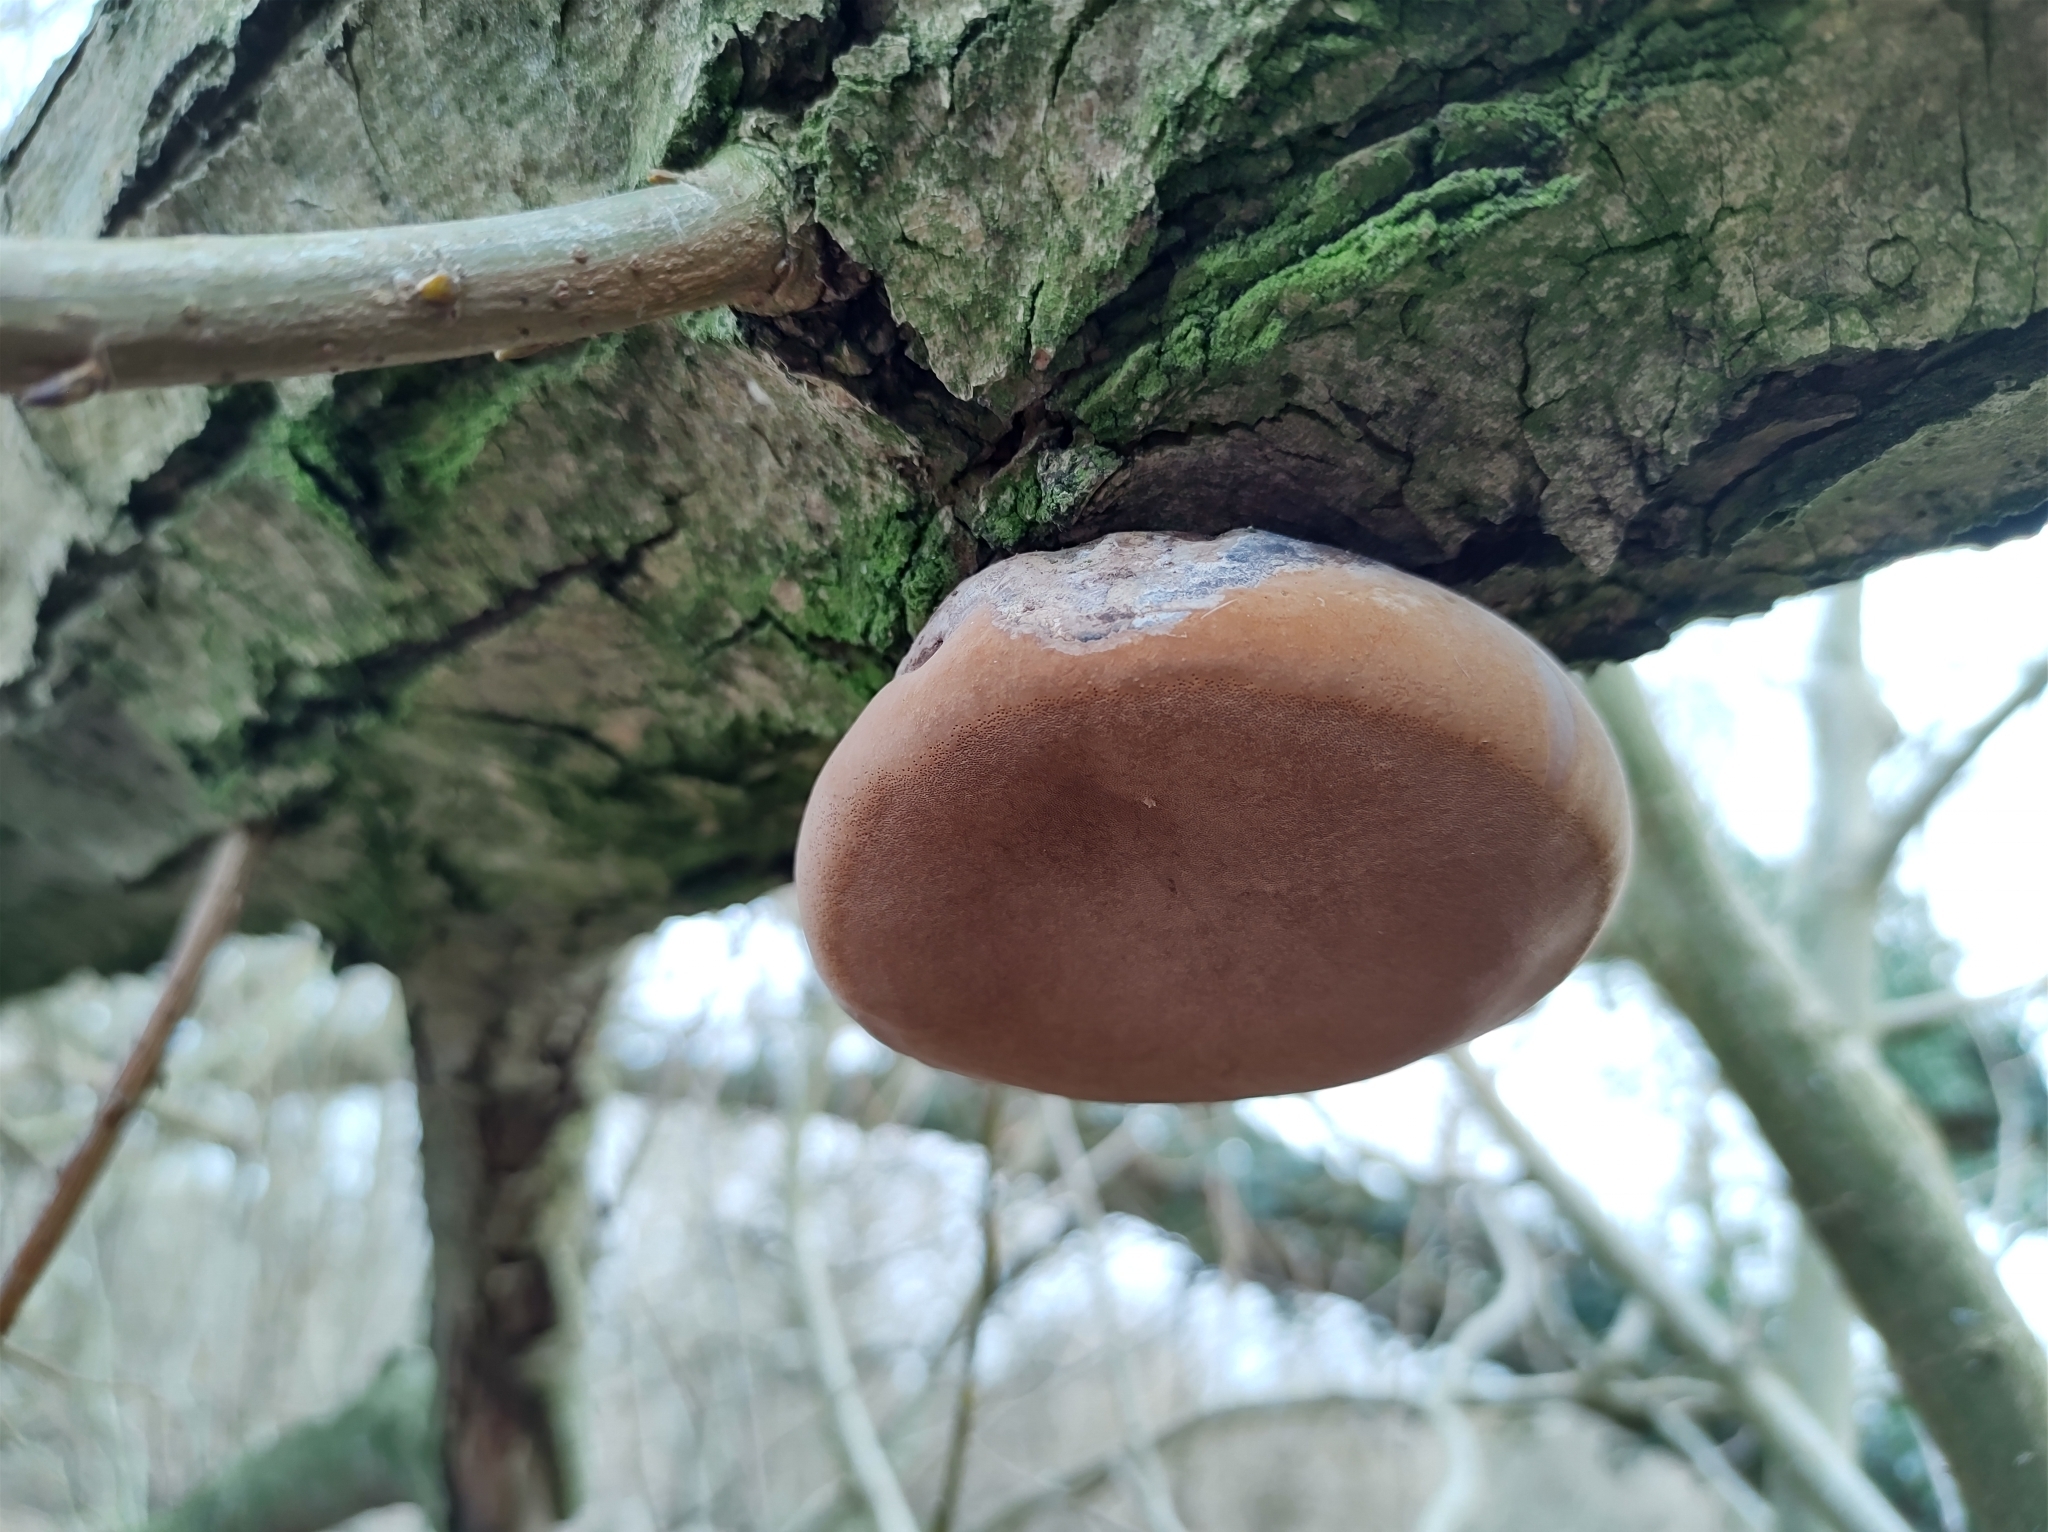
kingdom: Fungi
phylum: Basidiomycota
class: Agaricomycetes
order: Hymenochaetales
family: Hymenochaetaceae
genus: Phellinus
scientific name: Phellinus igniarius
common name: Willow bracket
